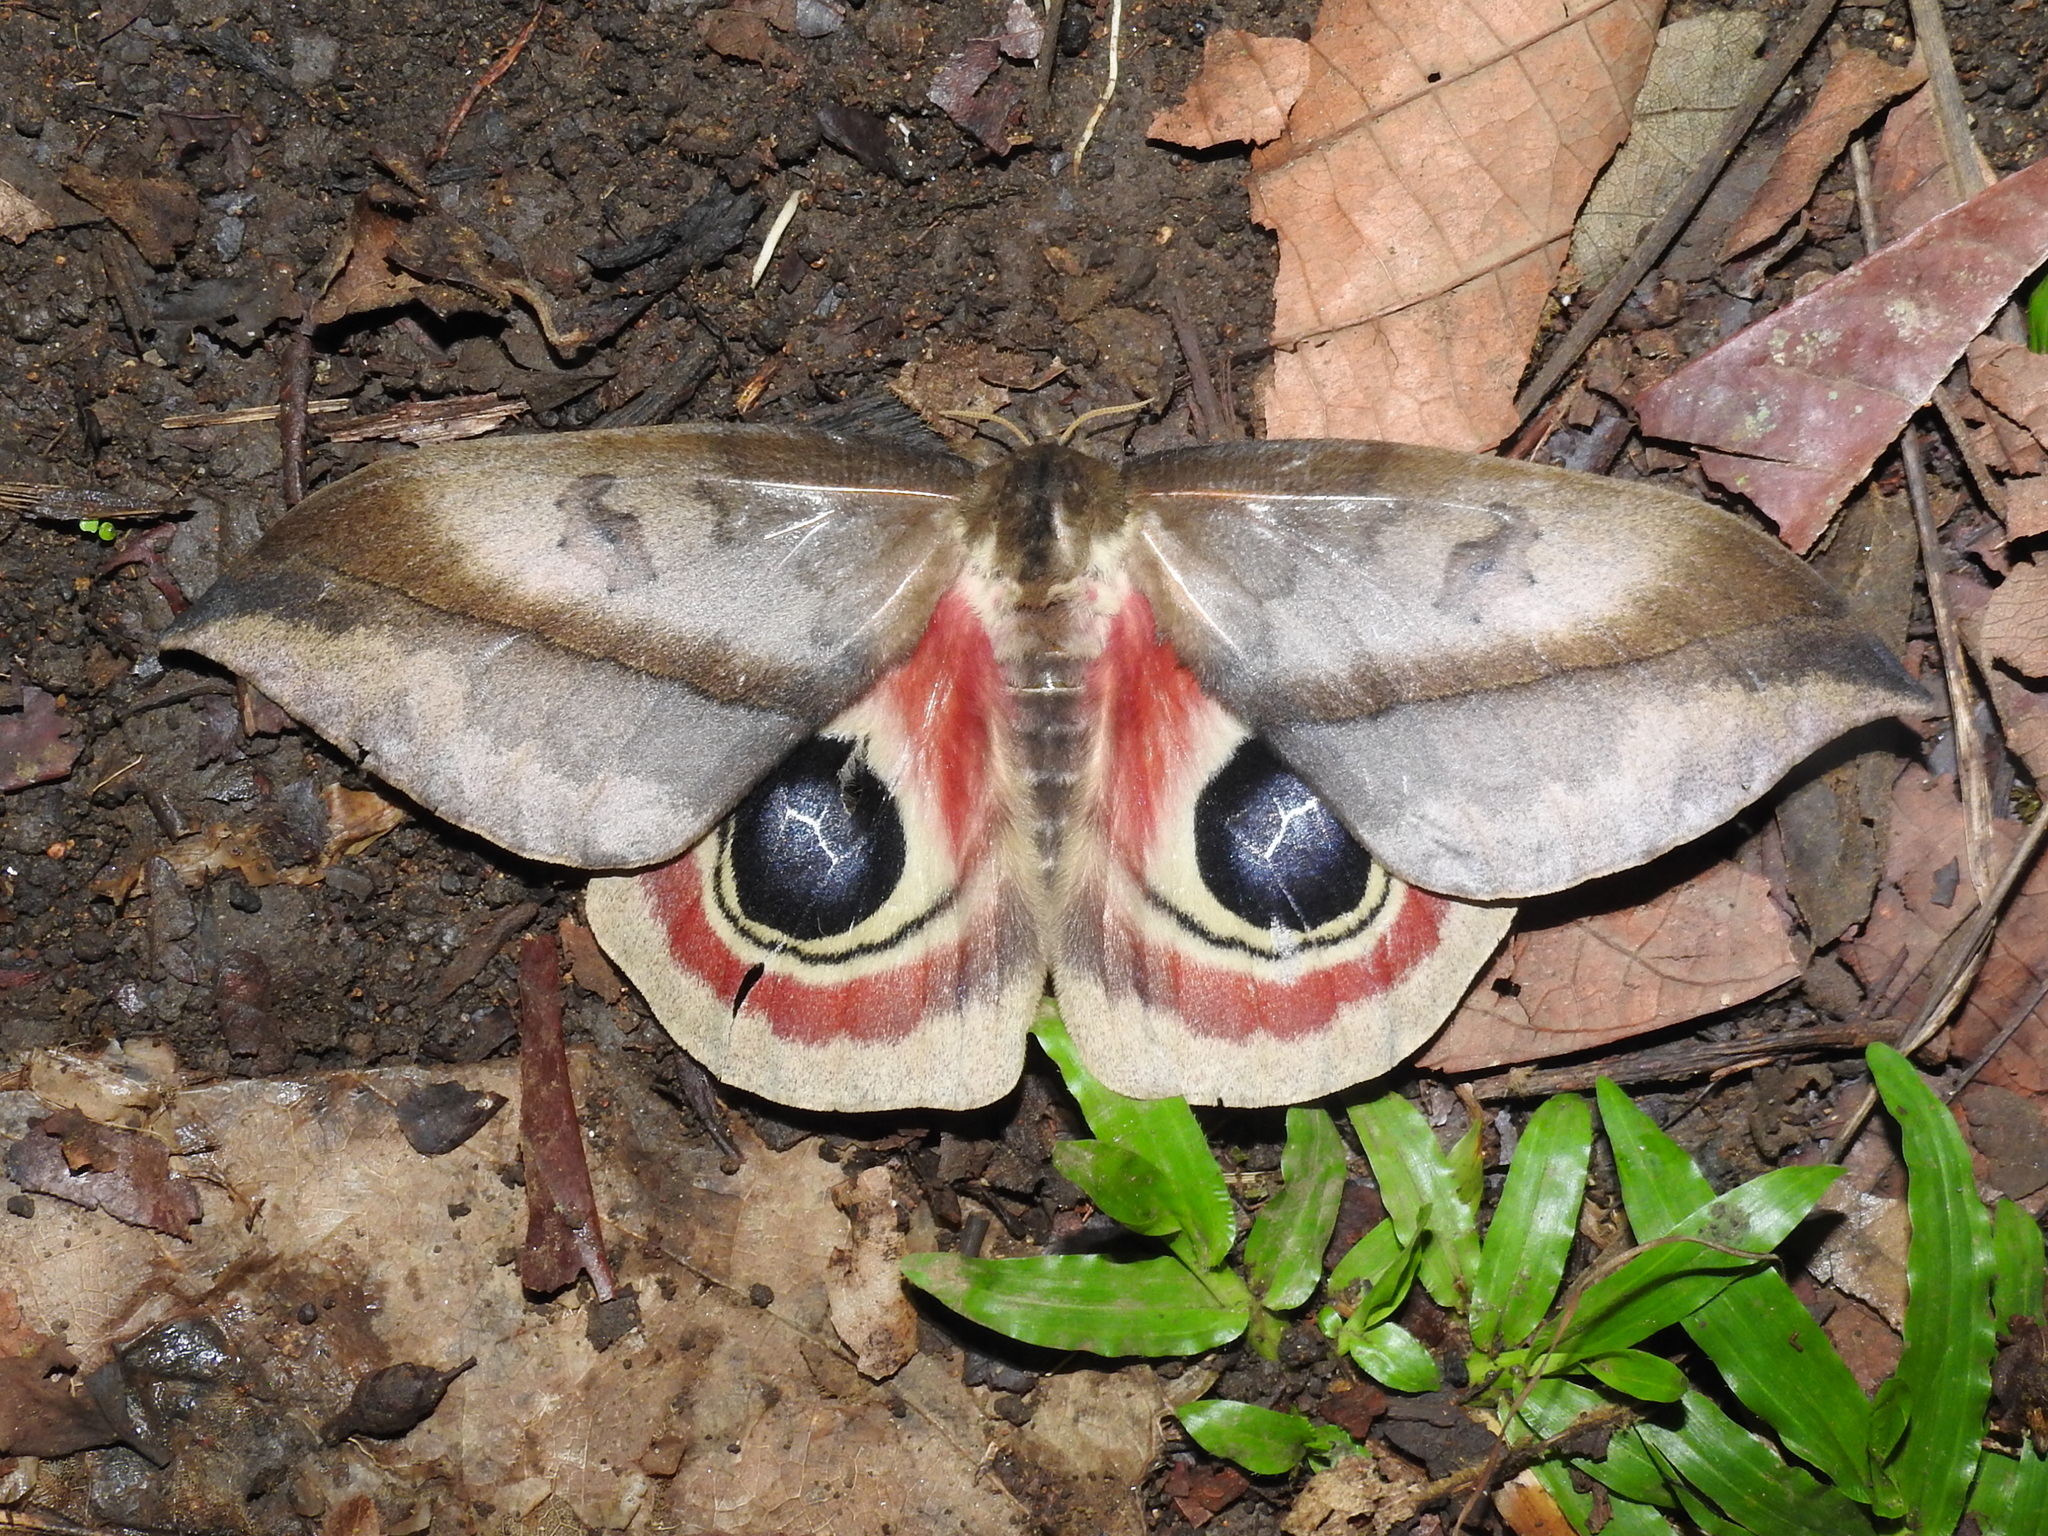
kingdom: Animalia
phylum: Arthropoda
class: Insecta
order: Lepidoptera
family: Saturniidae
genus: Automeris
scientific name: Automeris dagmarae
